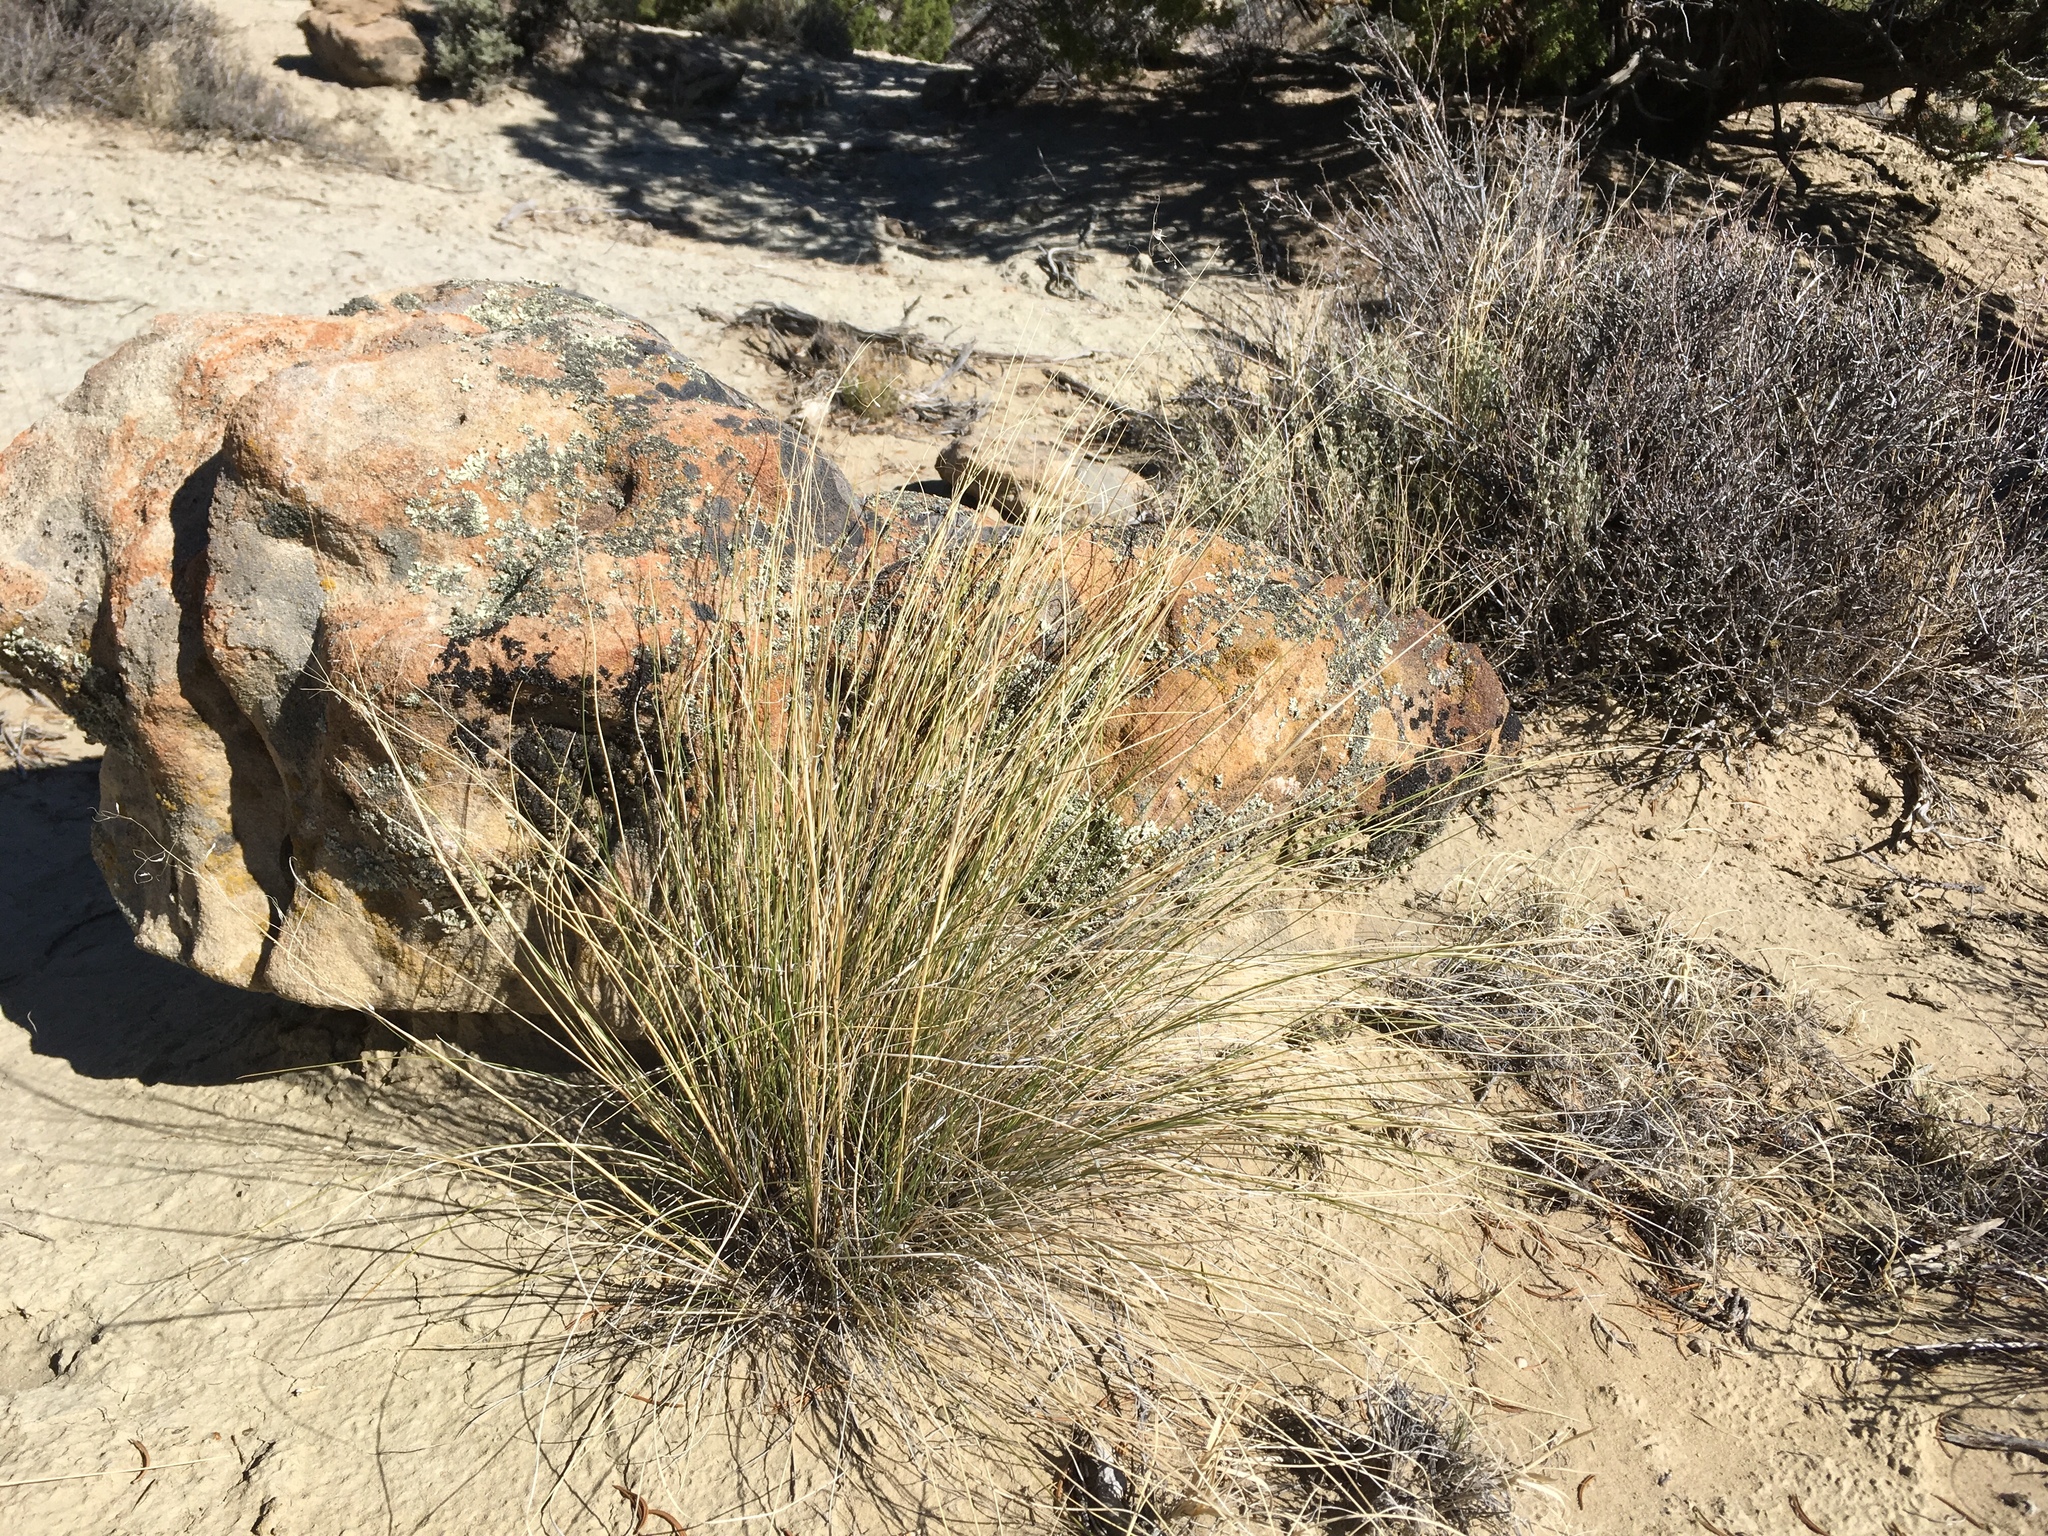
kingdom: Plantae
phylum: Tracheophyta
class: Liliopsida
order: Poales
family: Poaceae
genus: Eriocoma
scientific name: Eriocoma hymenoides
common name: Indian mountain ricegrass
